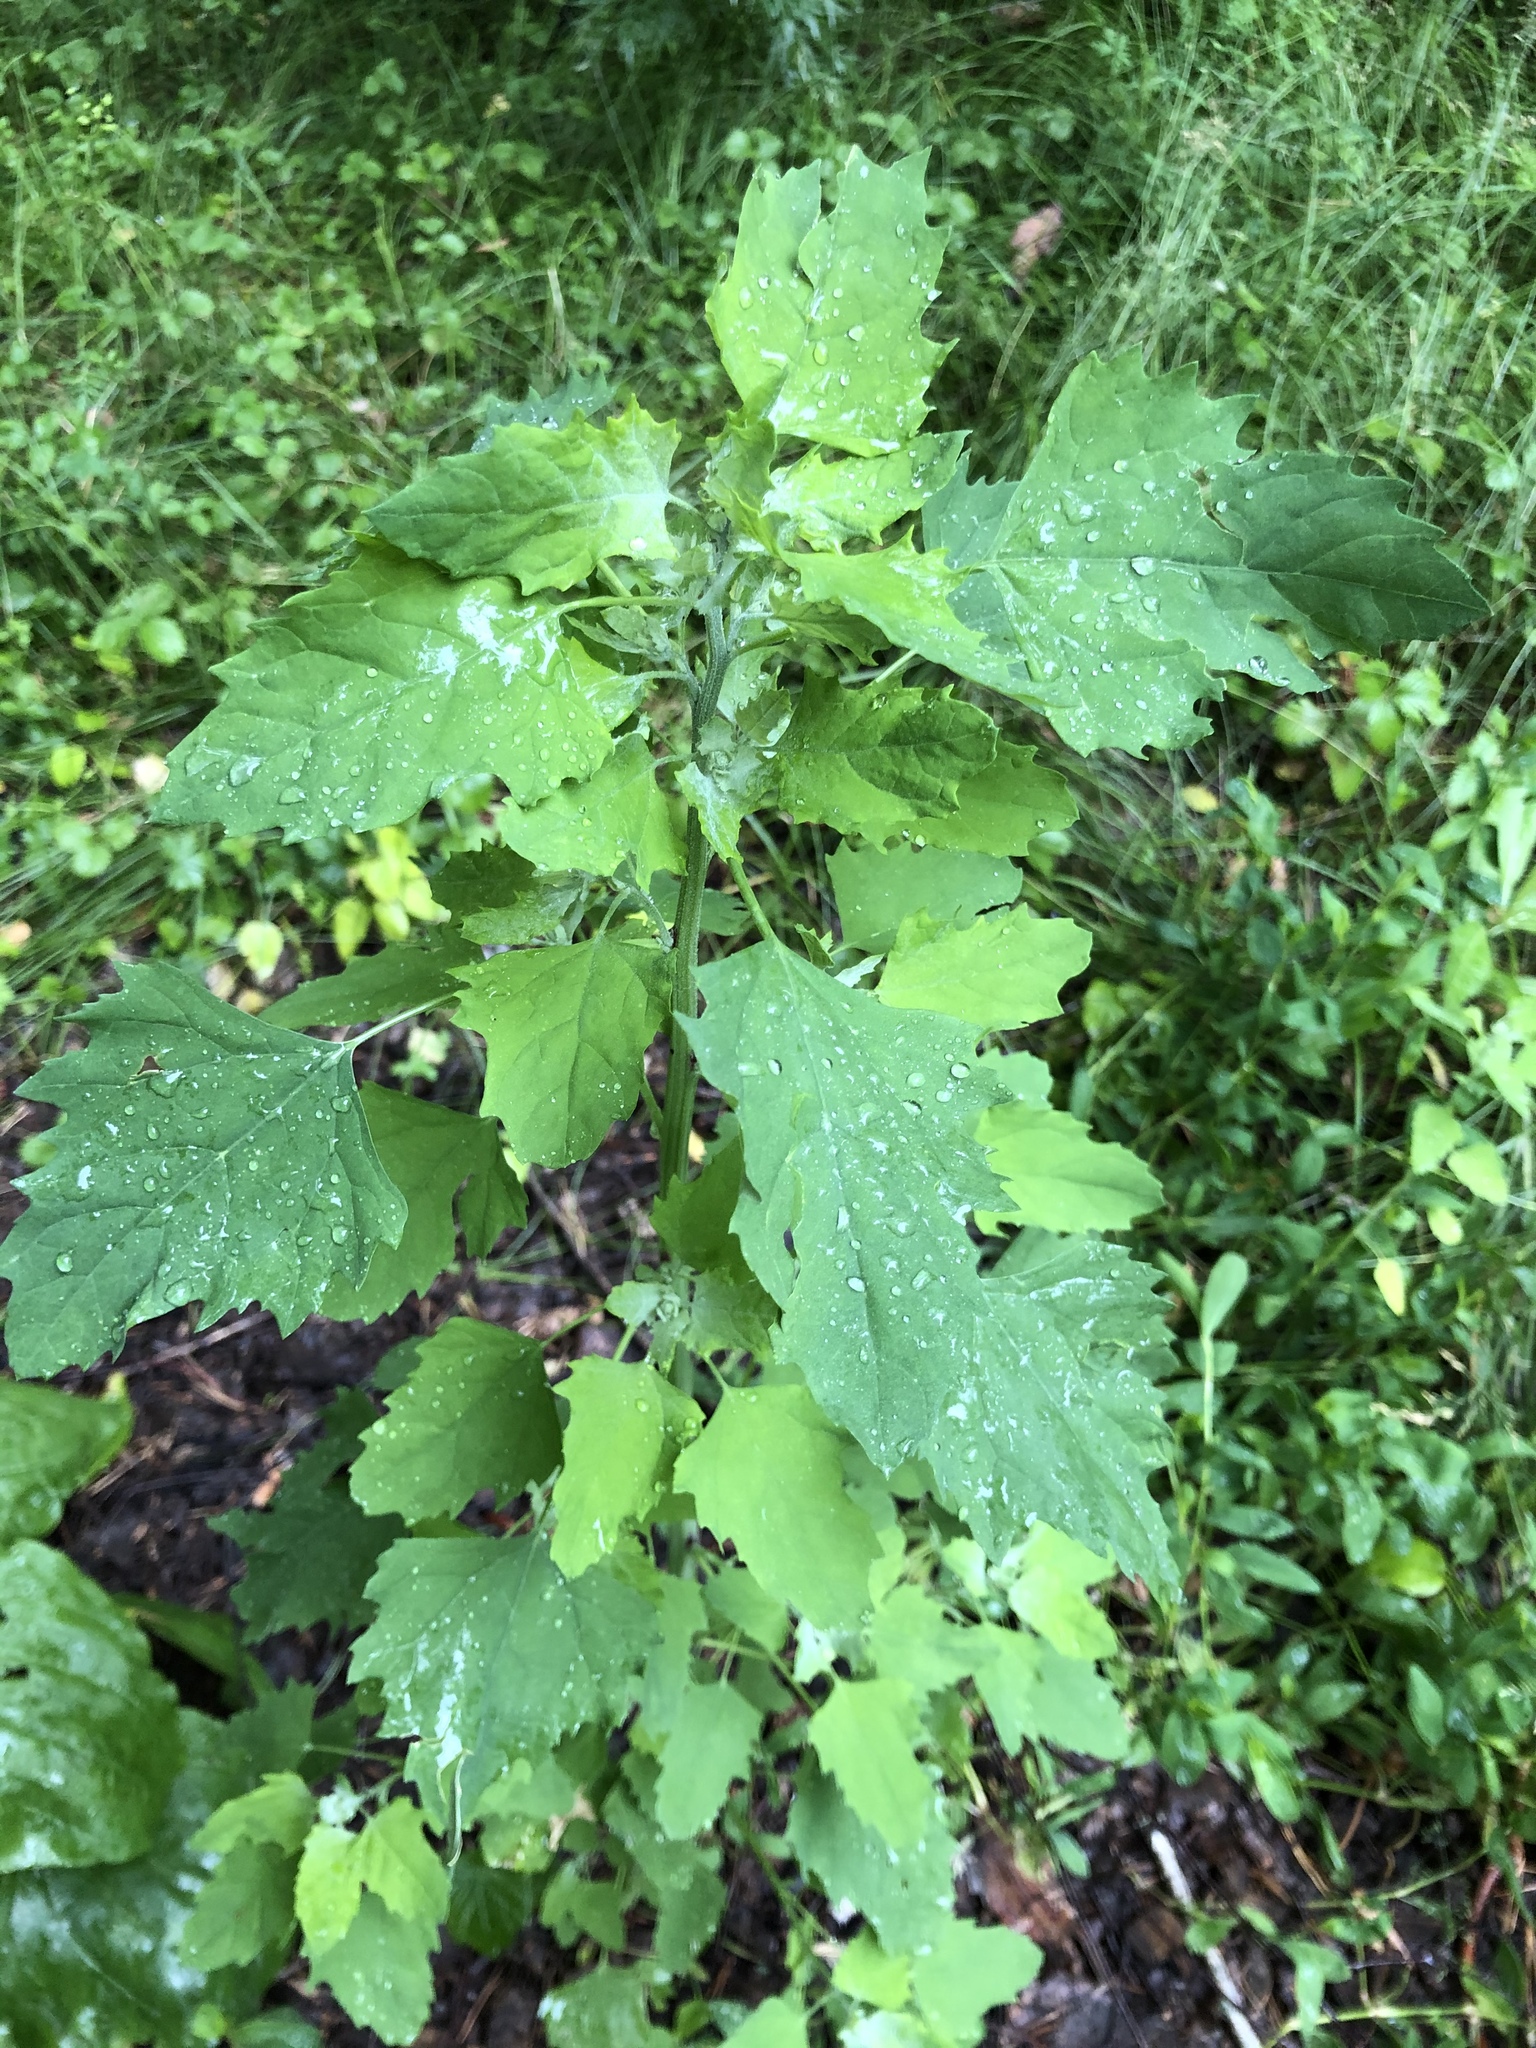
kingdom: Plantae
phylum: Tracheophyta
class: Magnoliopsida
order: Caryophyllales
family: Amaranthaceae
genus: Chenopodium
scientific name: Chenopodium album
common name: Fat-hen
